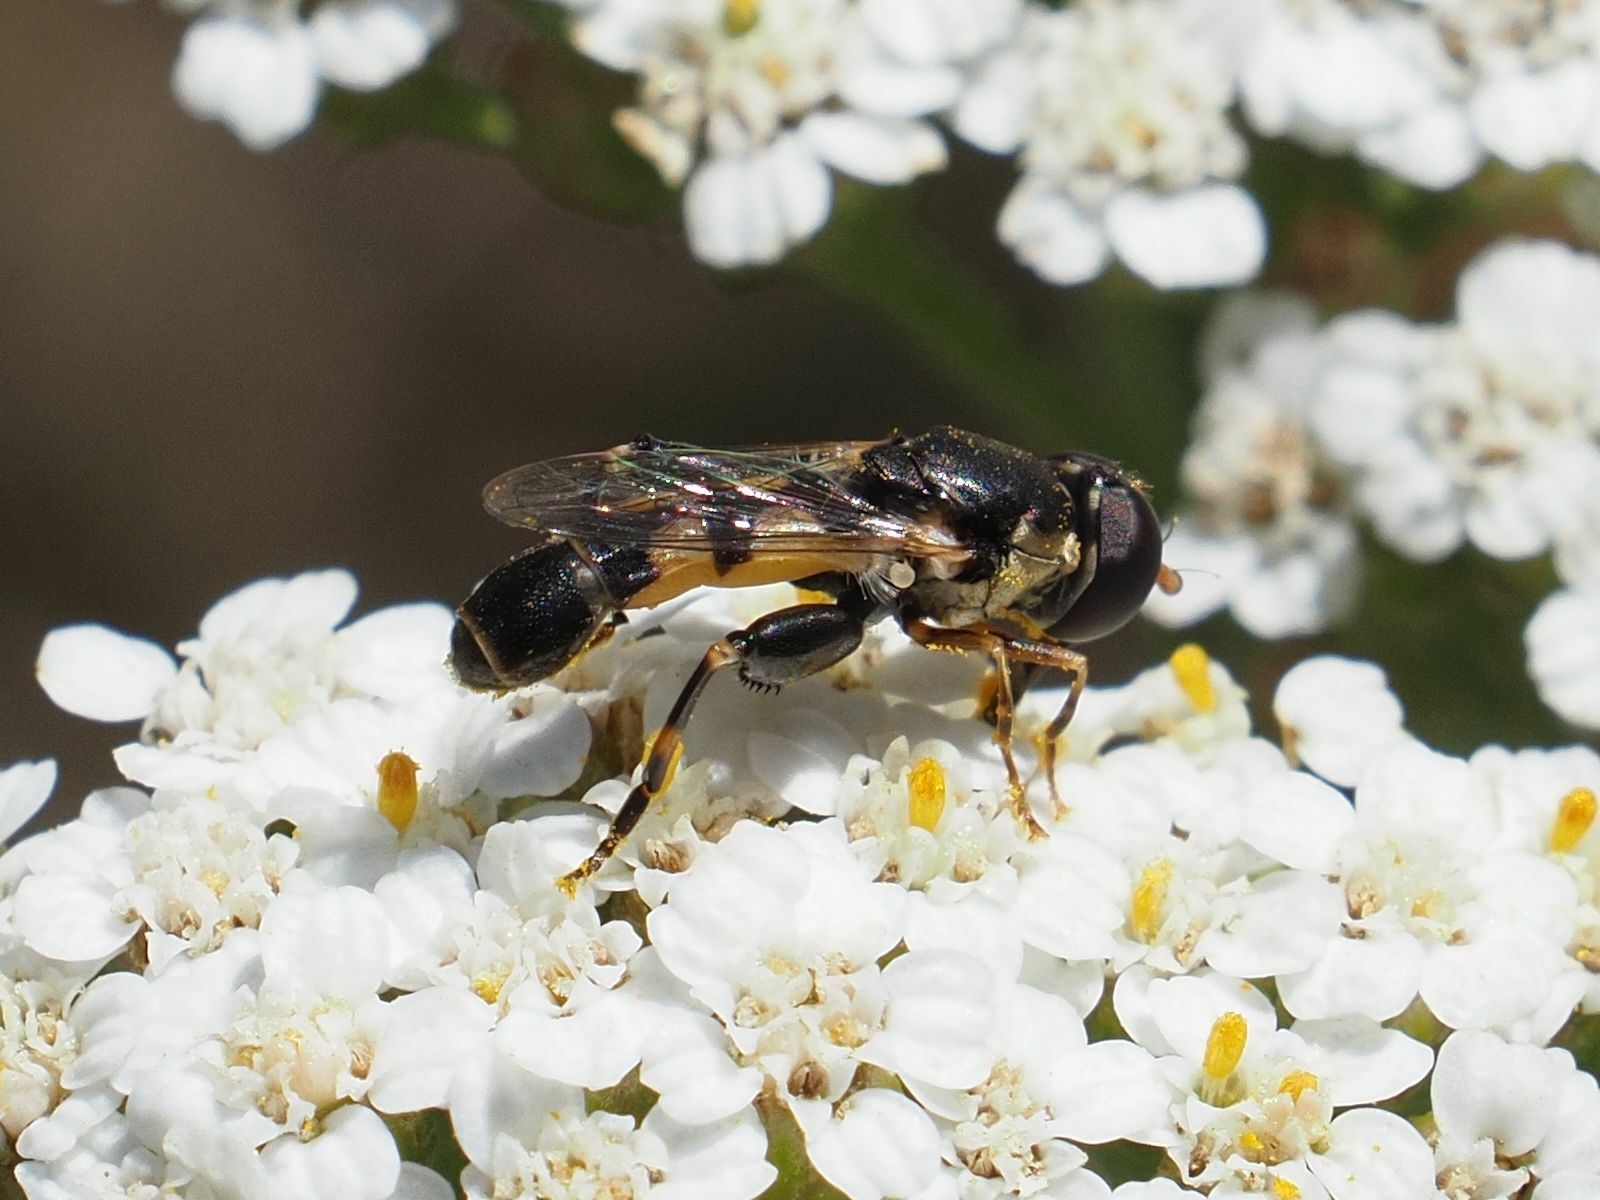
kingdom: Animalia
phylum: Arthropoda
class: Insecta
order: Diptera
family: Syrphidae
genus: Syritta
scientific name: Syritta pipiens
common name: Hover fly
